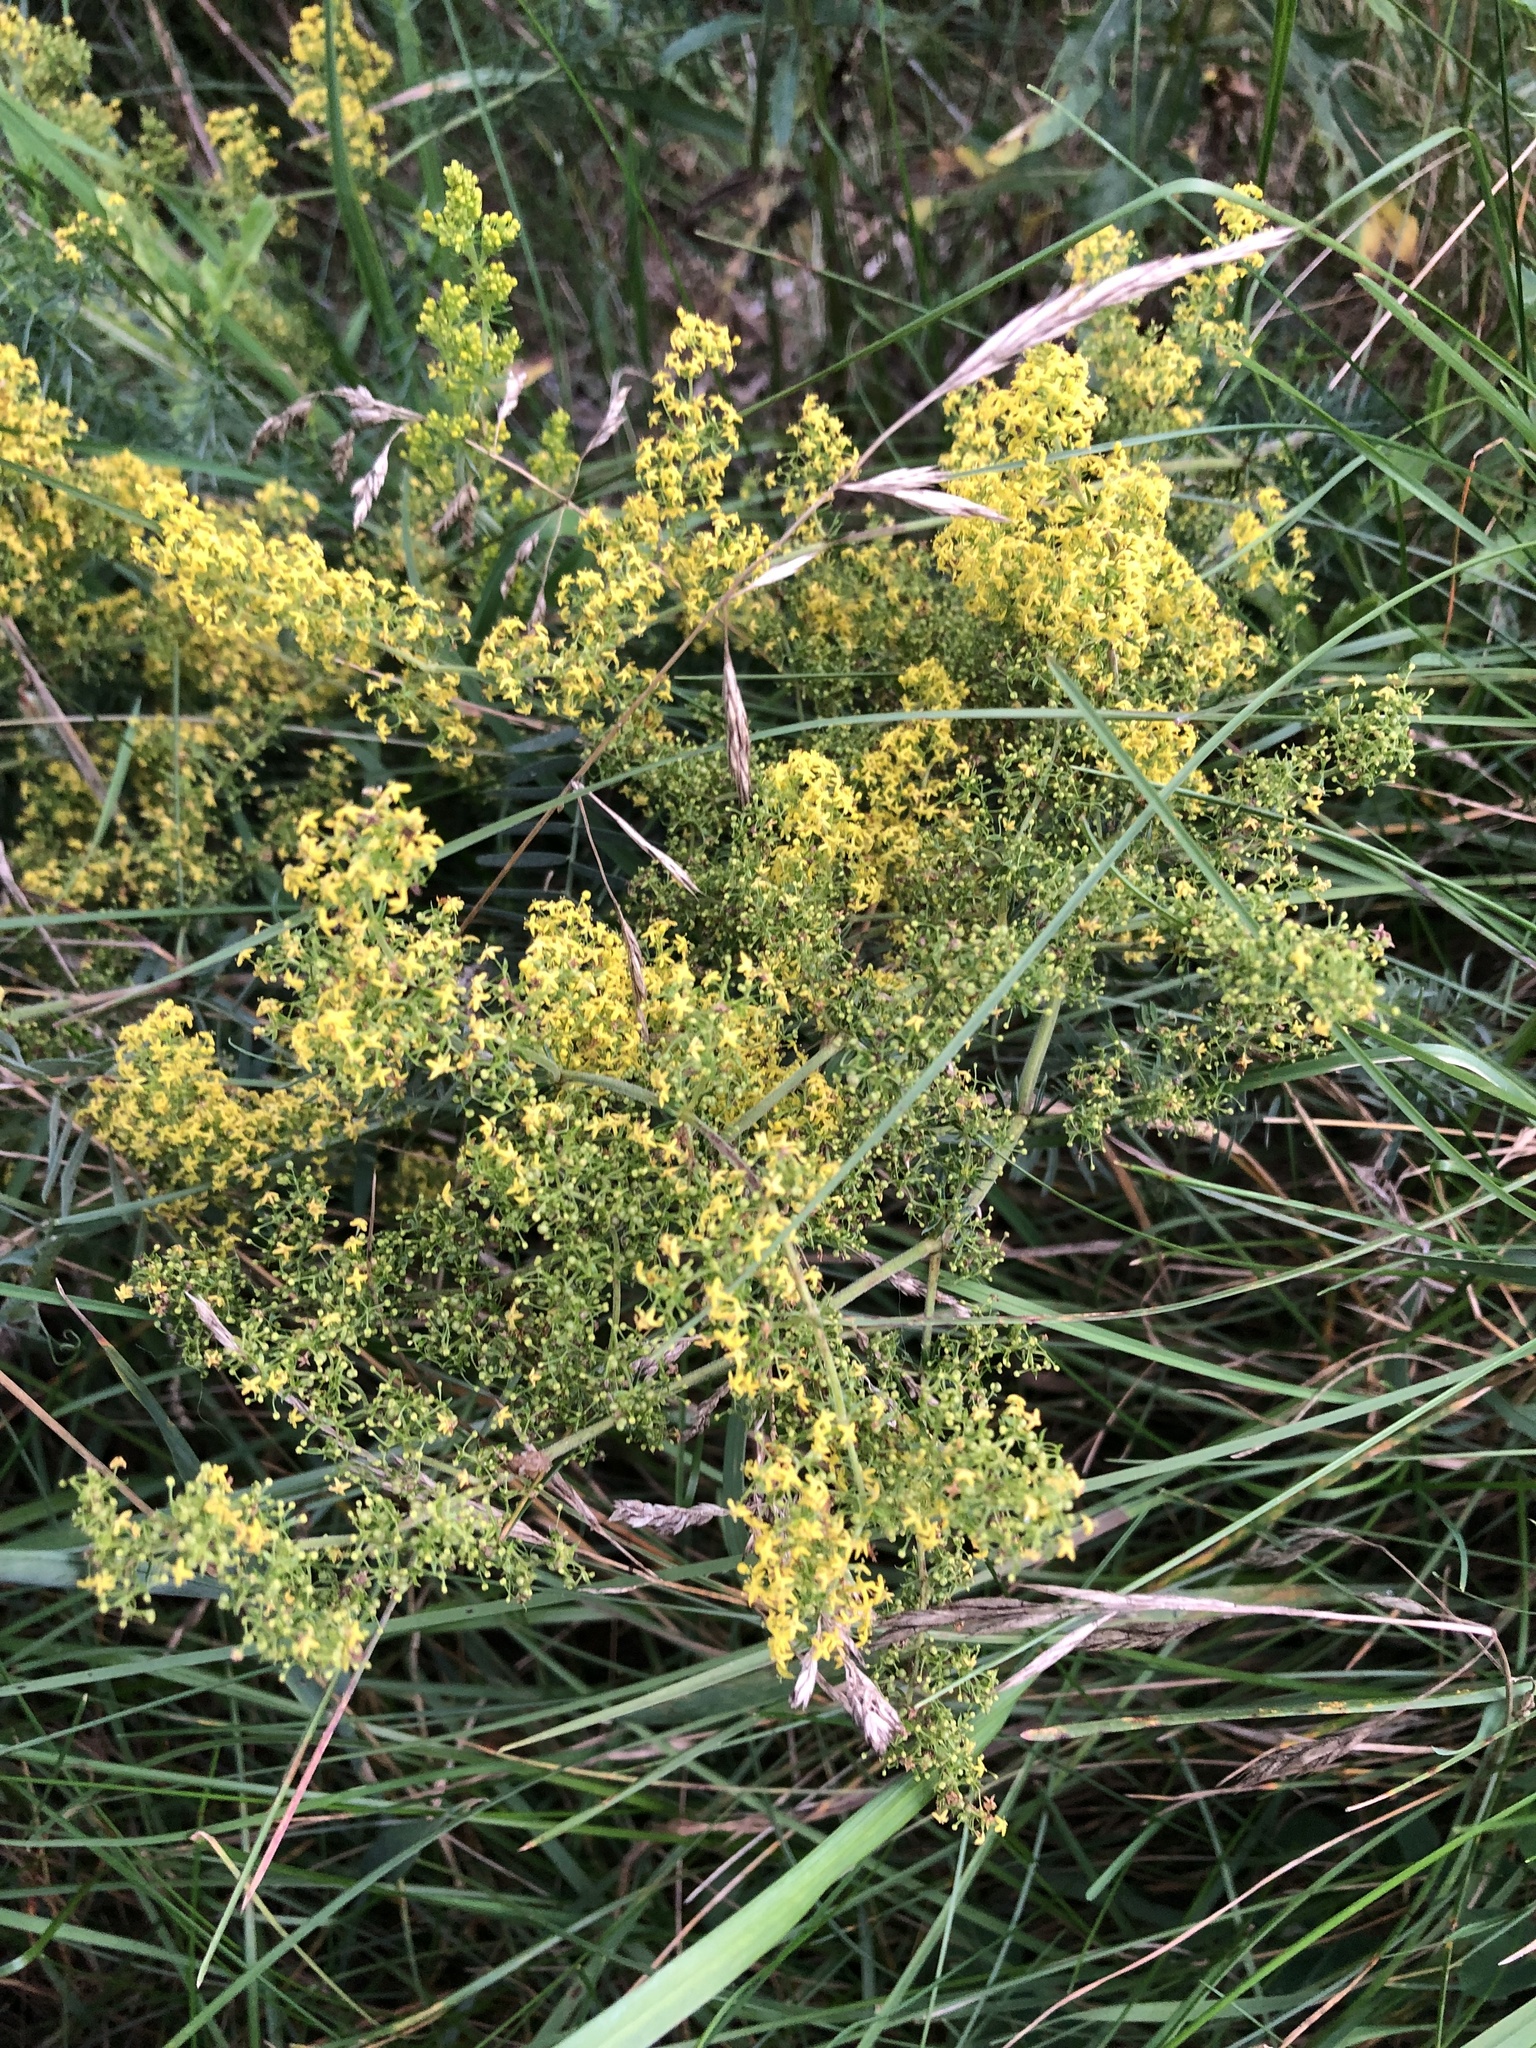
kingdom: Plantae
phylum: Tracheophyta
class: Magnoliopsida
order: Gentianales
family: Rubiaceae
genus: Galium
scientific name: Galium verum
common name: Lady's bedstraw
